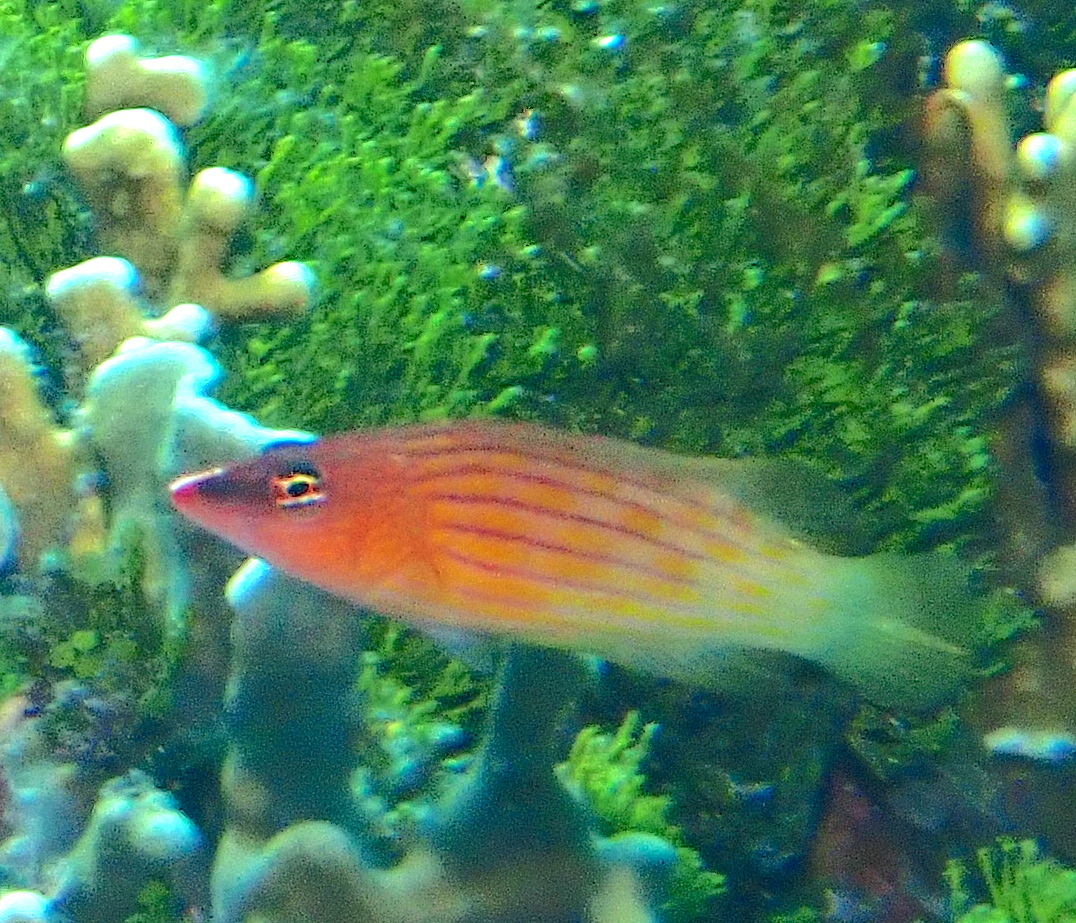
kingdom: Animalia
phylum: Chordata
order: Perciformes
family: Labridae
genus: Pseudocheilinus
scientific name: Pseudocheilinus octotaenia
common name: Eightline wrasse
